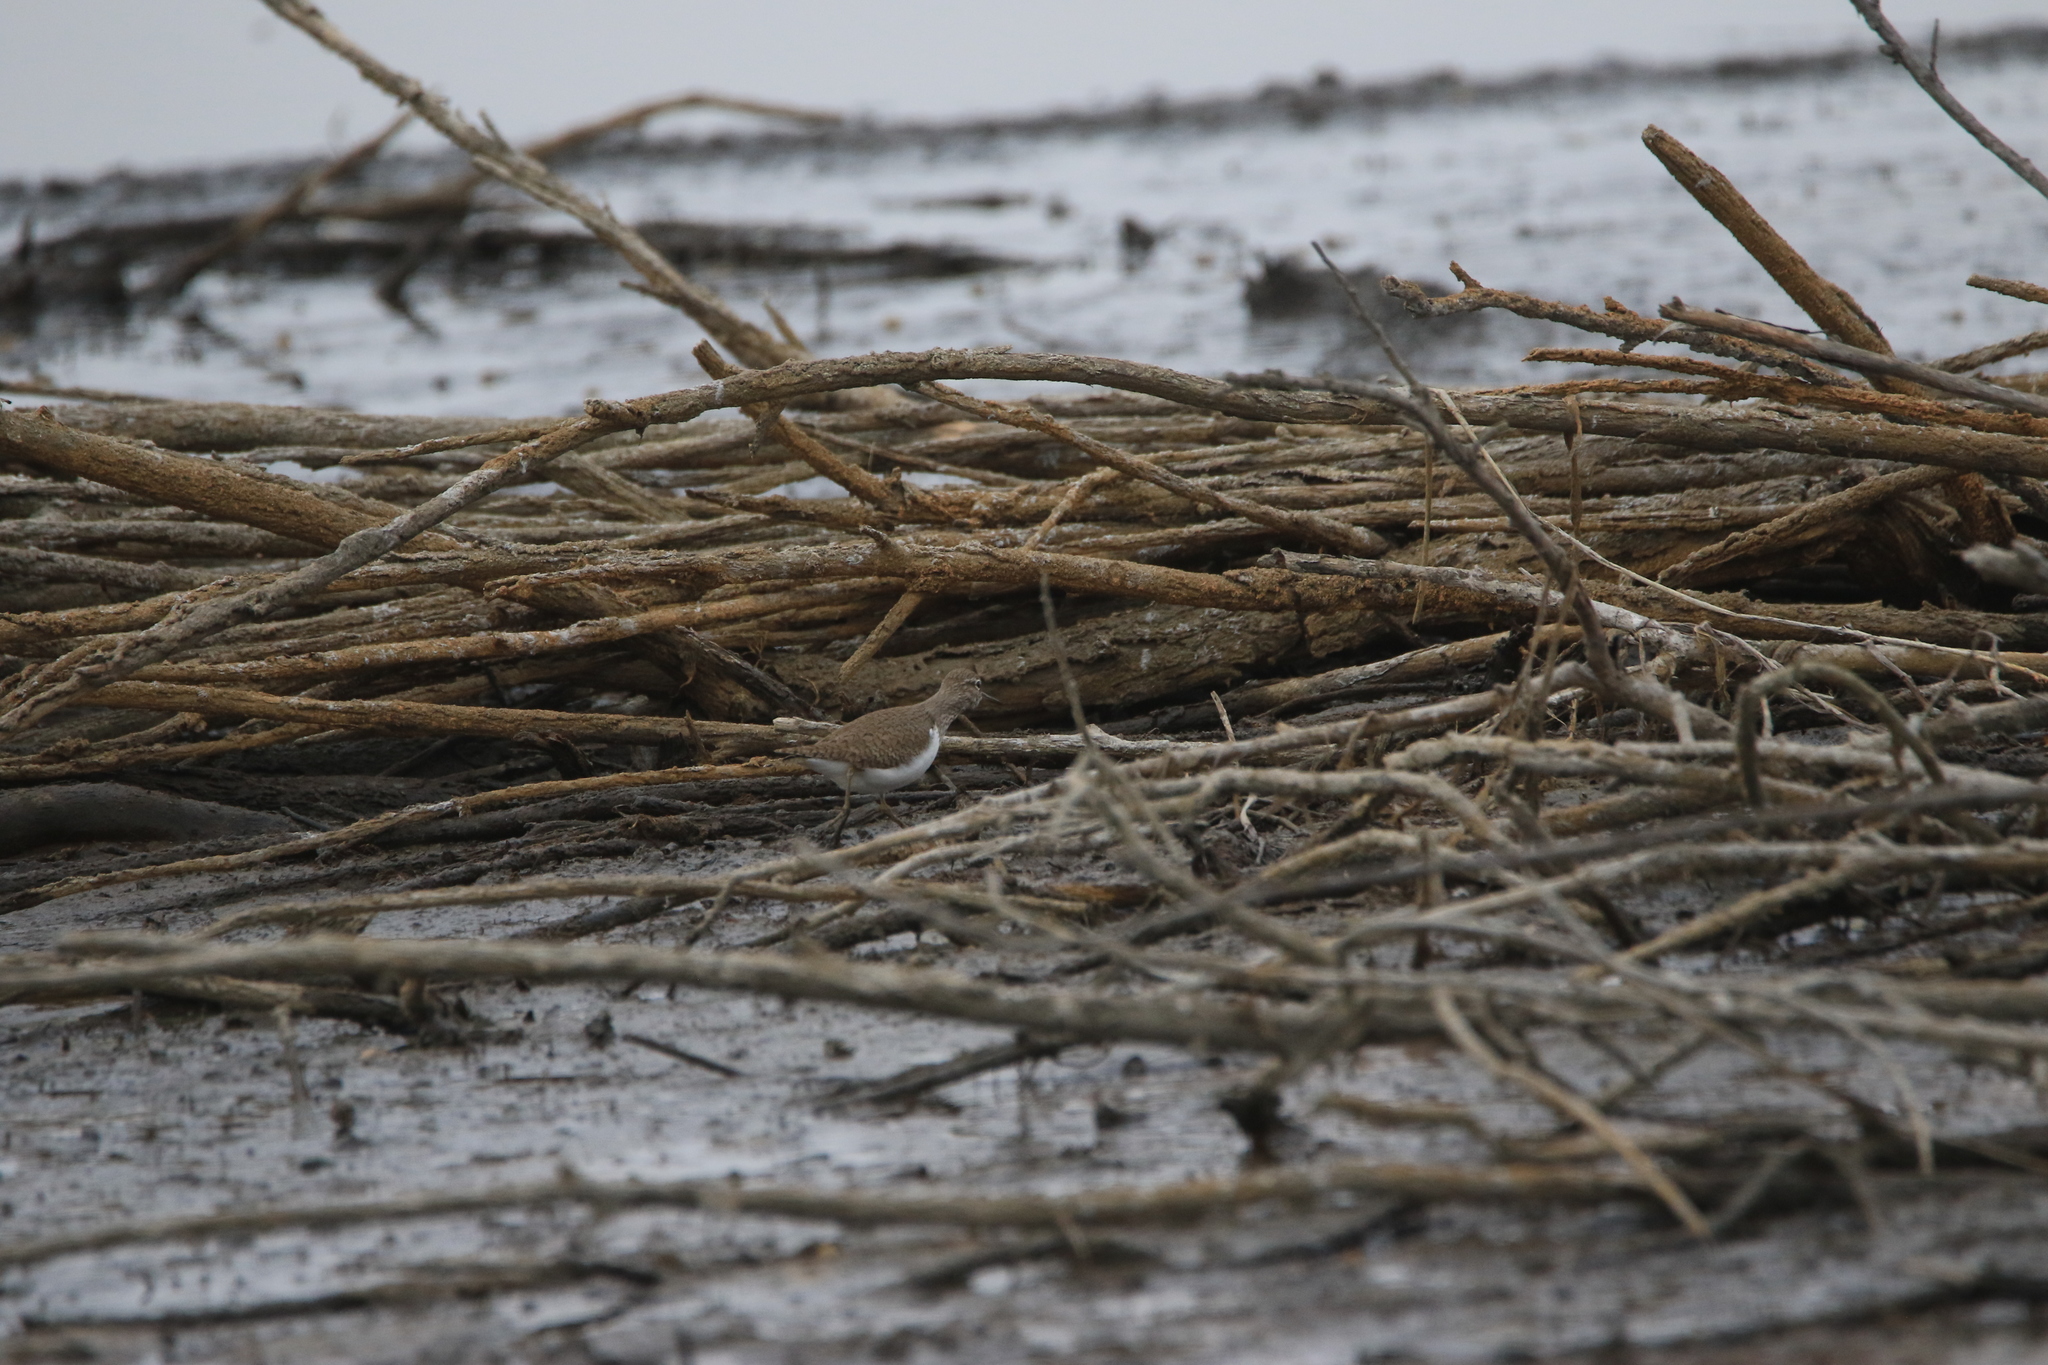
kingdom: Animalia
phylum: Chordata
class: Aves
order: Charadriiformes
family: Scolopacidae
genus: Actitis
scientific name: Actitis hypoleucos
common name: Common sandpiper
